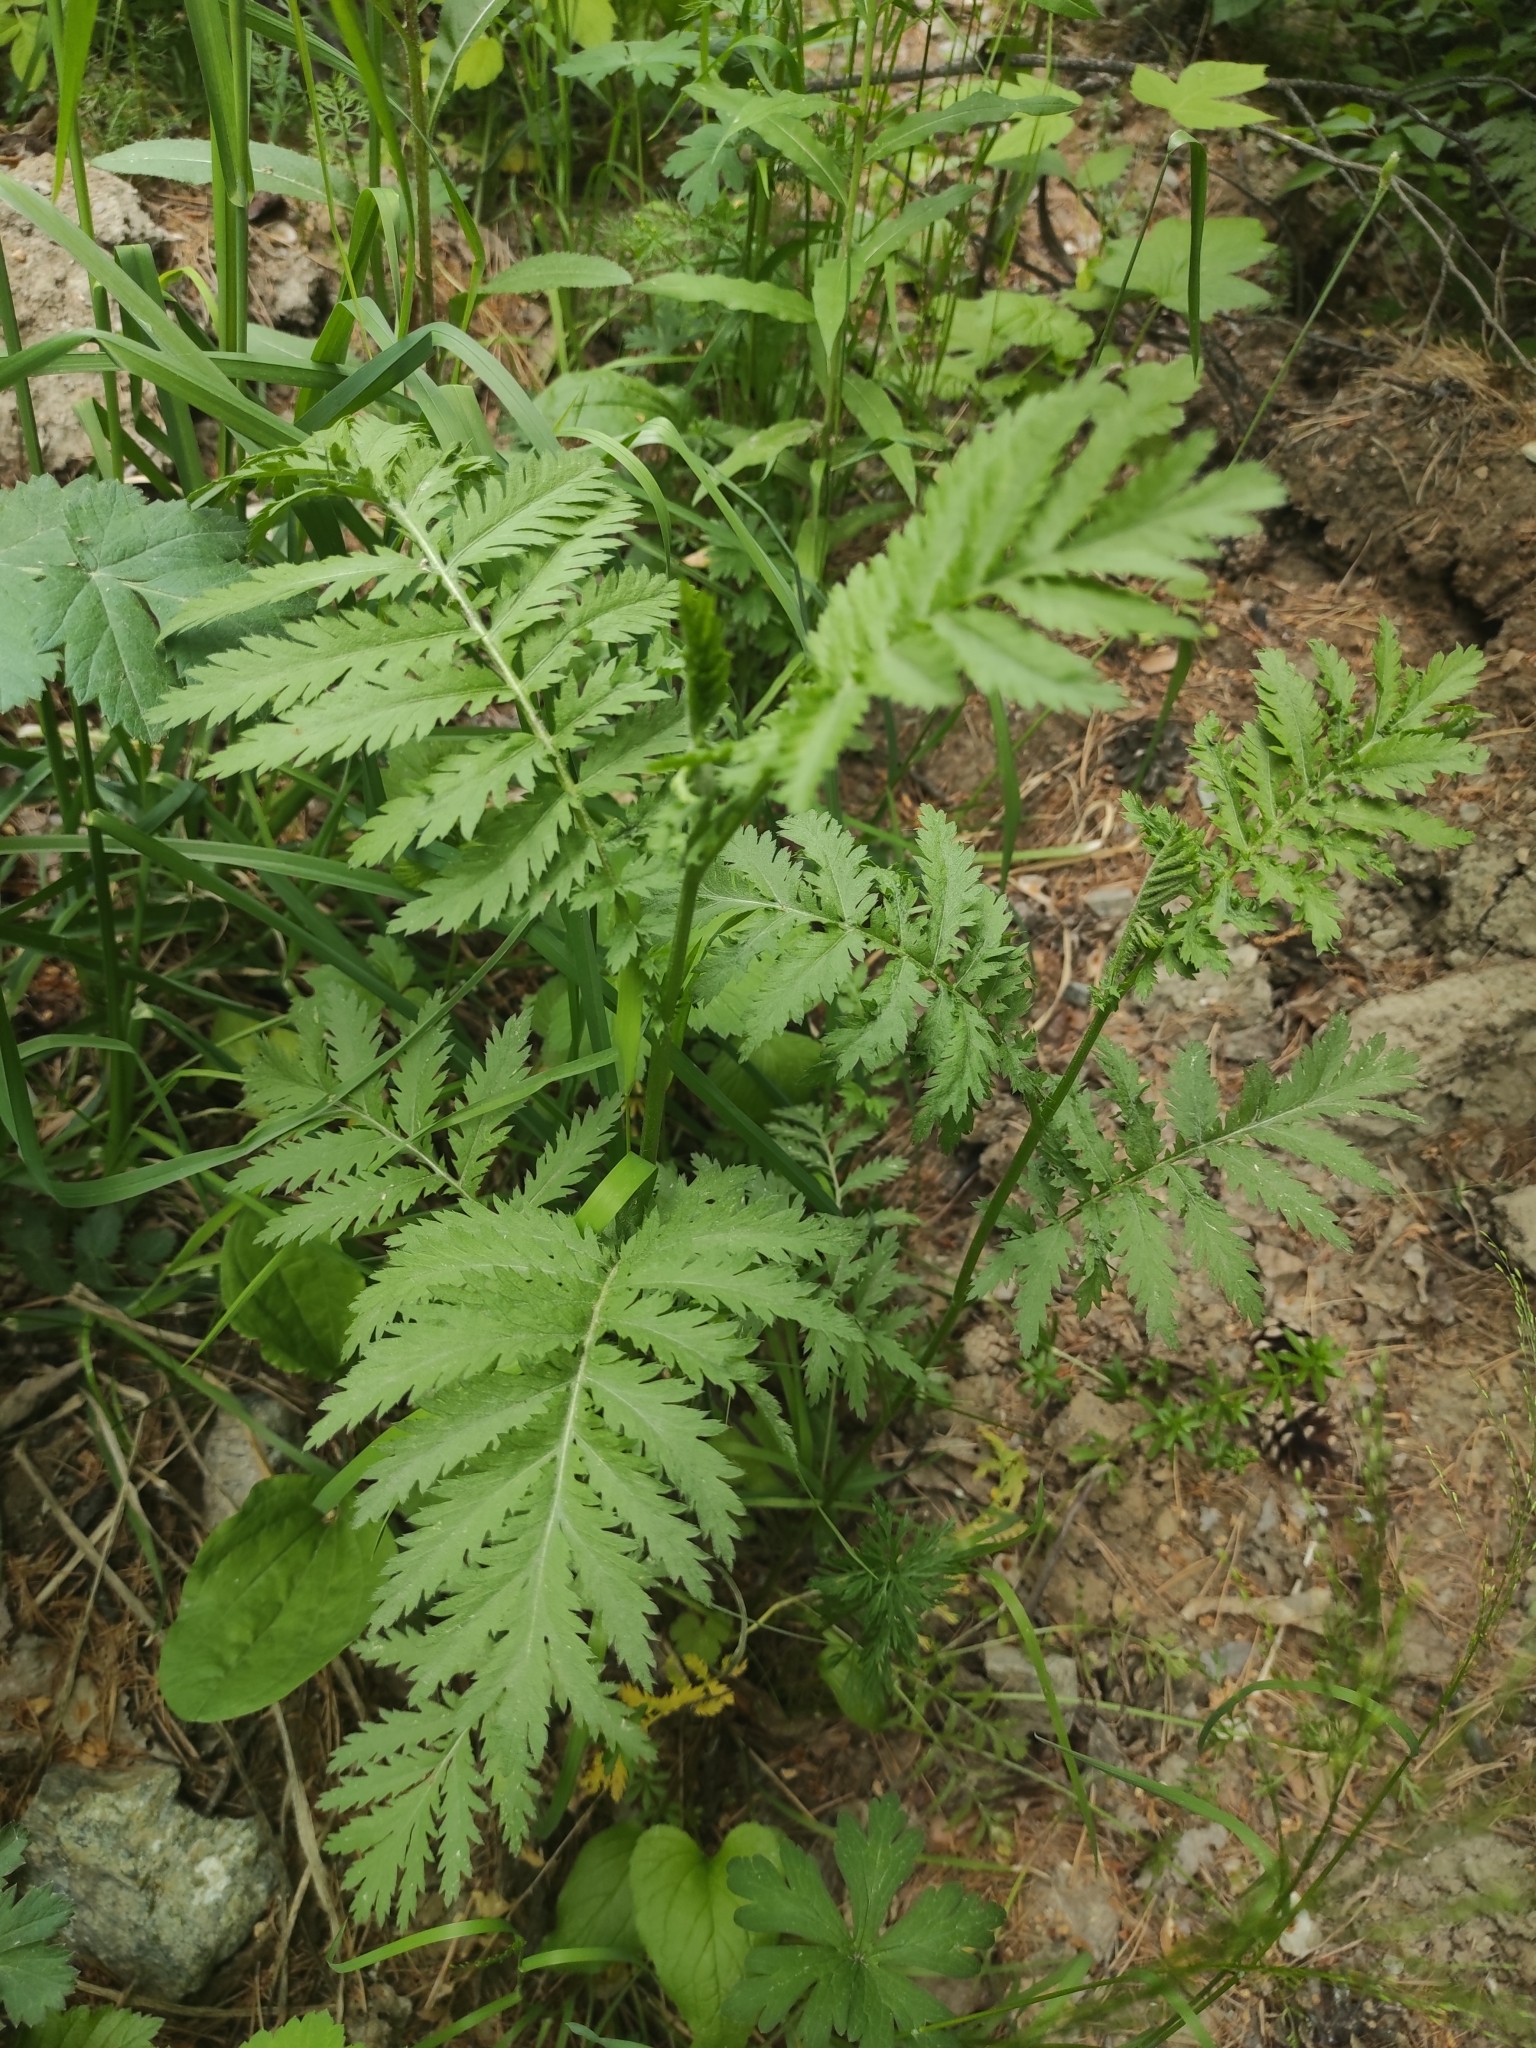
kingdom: Plantae
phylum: Tracheophyta
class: Magnoliopsida
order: Asterales
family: Asteraceae
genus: Tanacetum
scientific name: Tanacetum corymbosum
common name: Scentless feverfew
